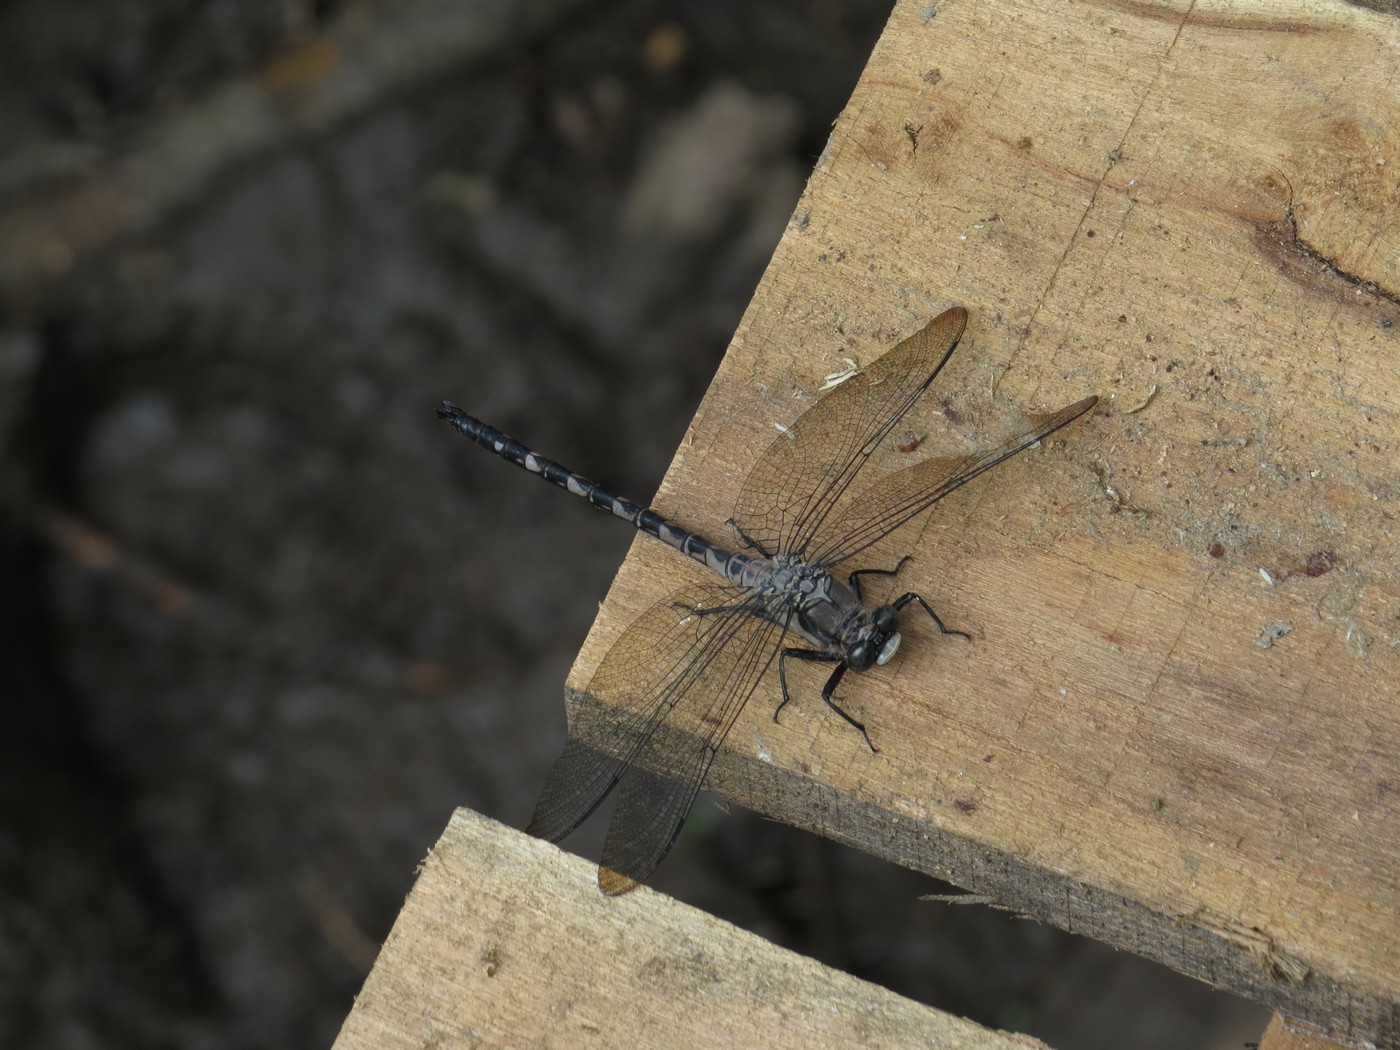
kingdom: Animalia
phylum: Arthropoda
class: Insecta
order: Odonata
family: Petaluridae
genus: Tachopteryx
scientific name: Tachopteryx thoreyi
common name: Gray petaltail
